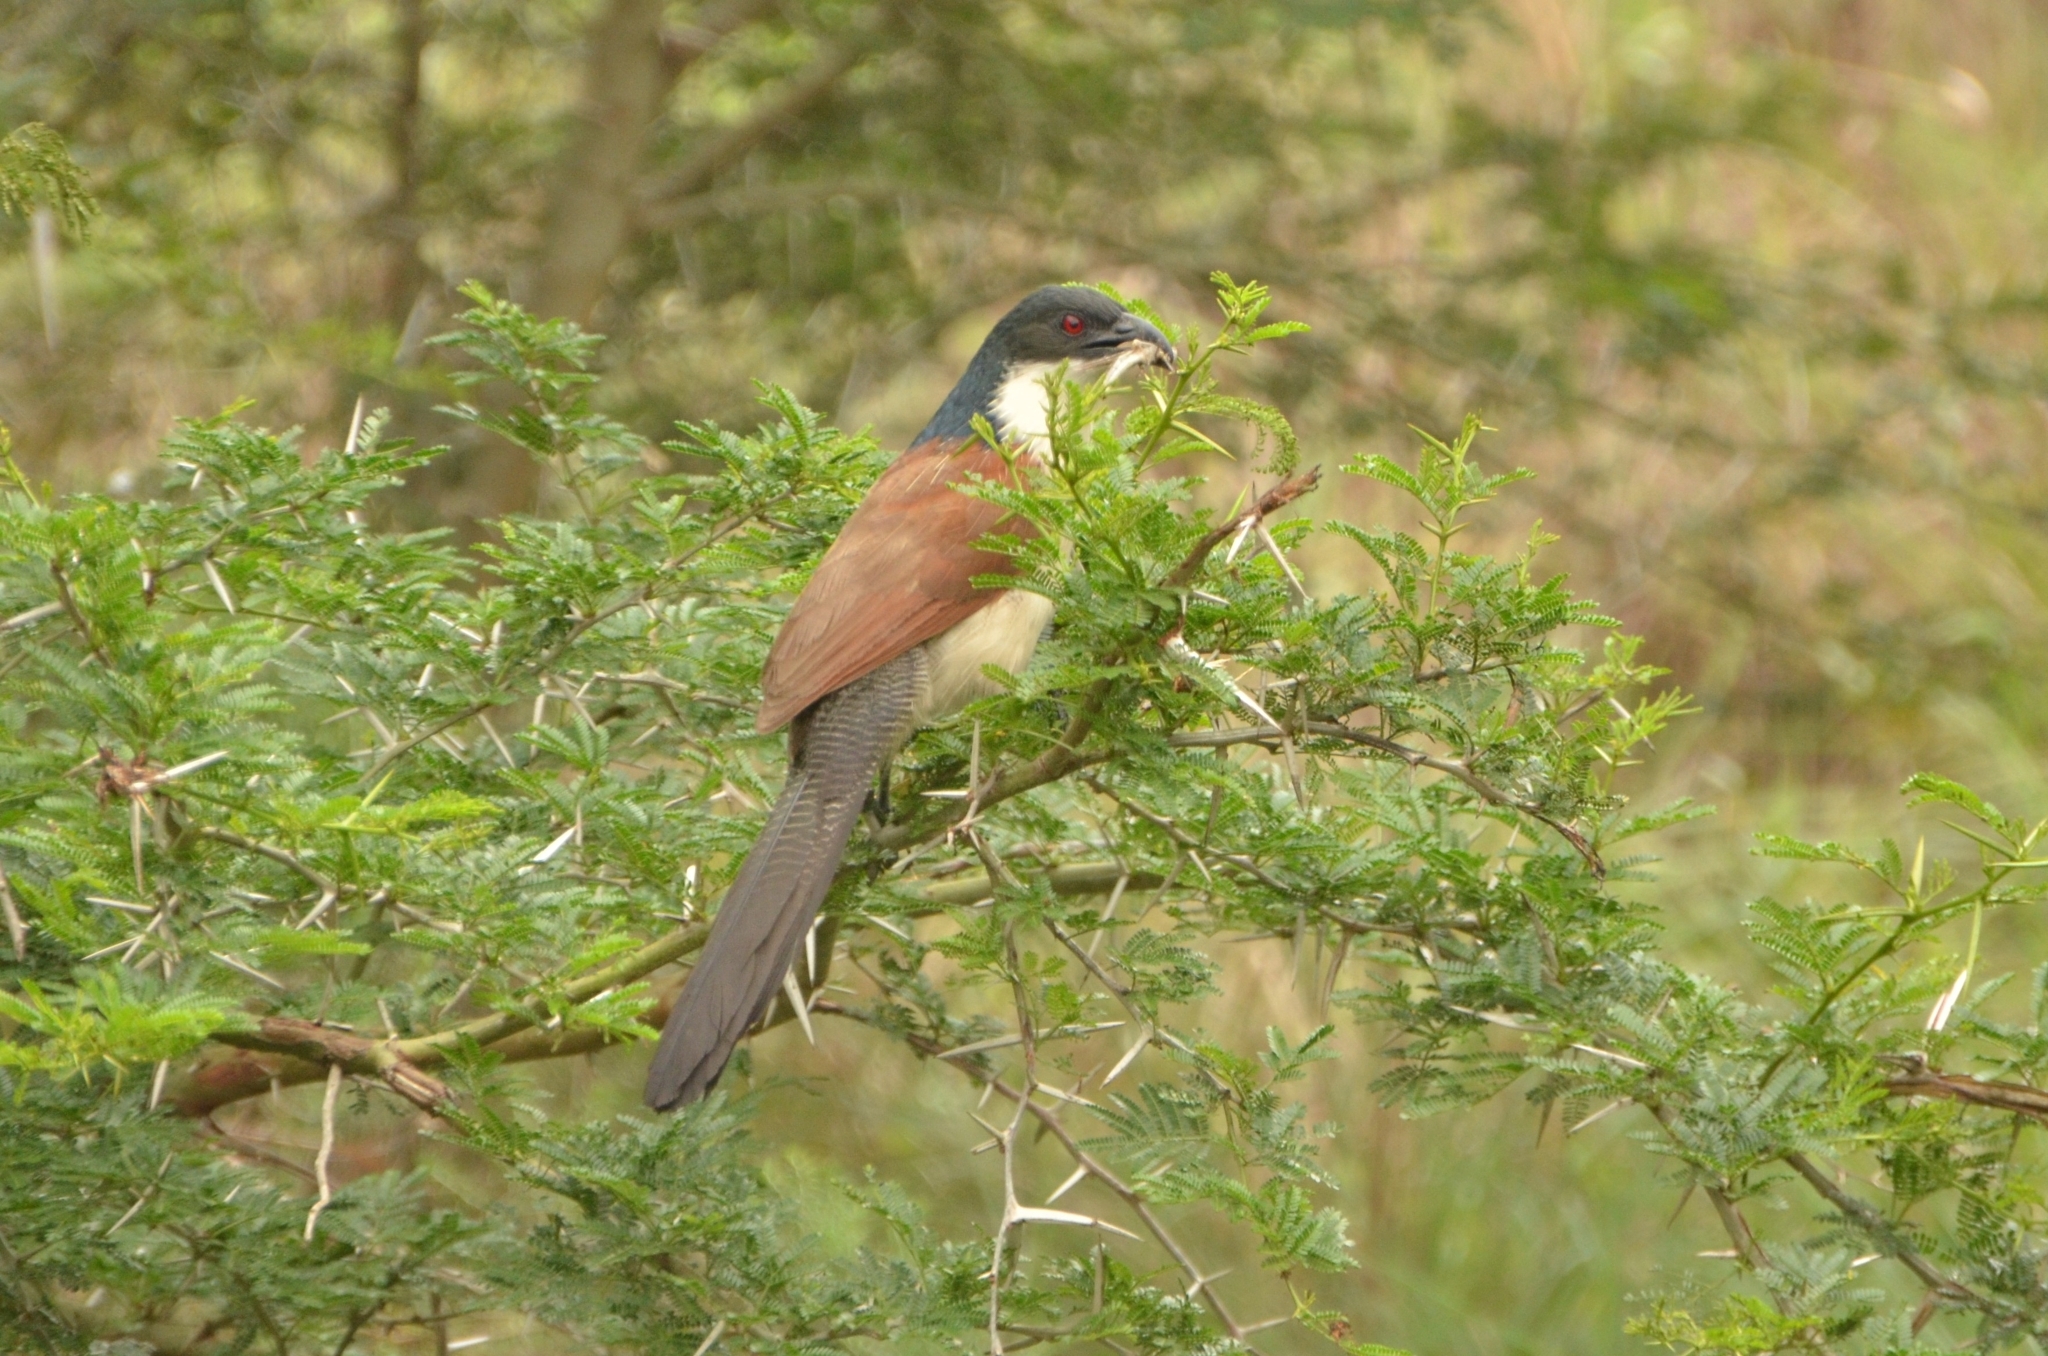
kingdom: Animalia
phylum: Chordata
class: Aves
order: Cuculiformes
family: Cuculidae
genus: Centropus
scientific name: Centropus superciliosus
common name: White-browed coucal
